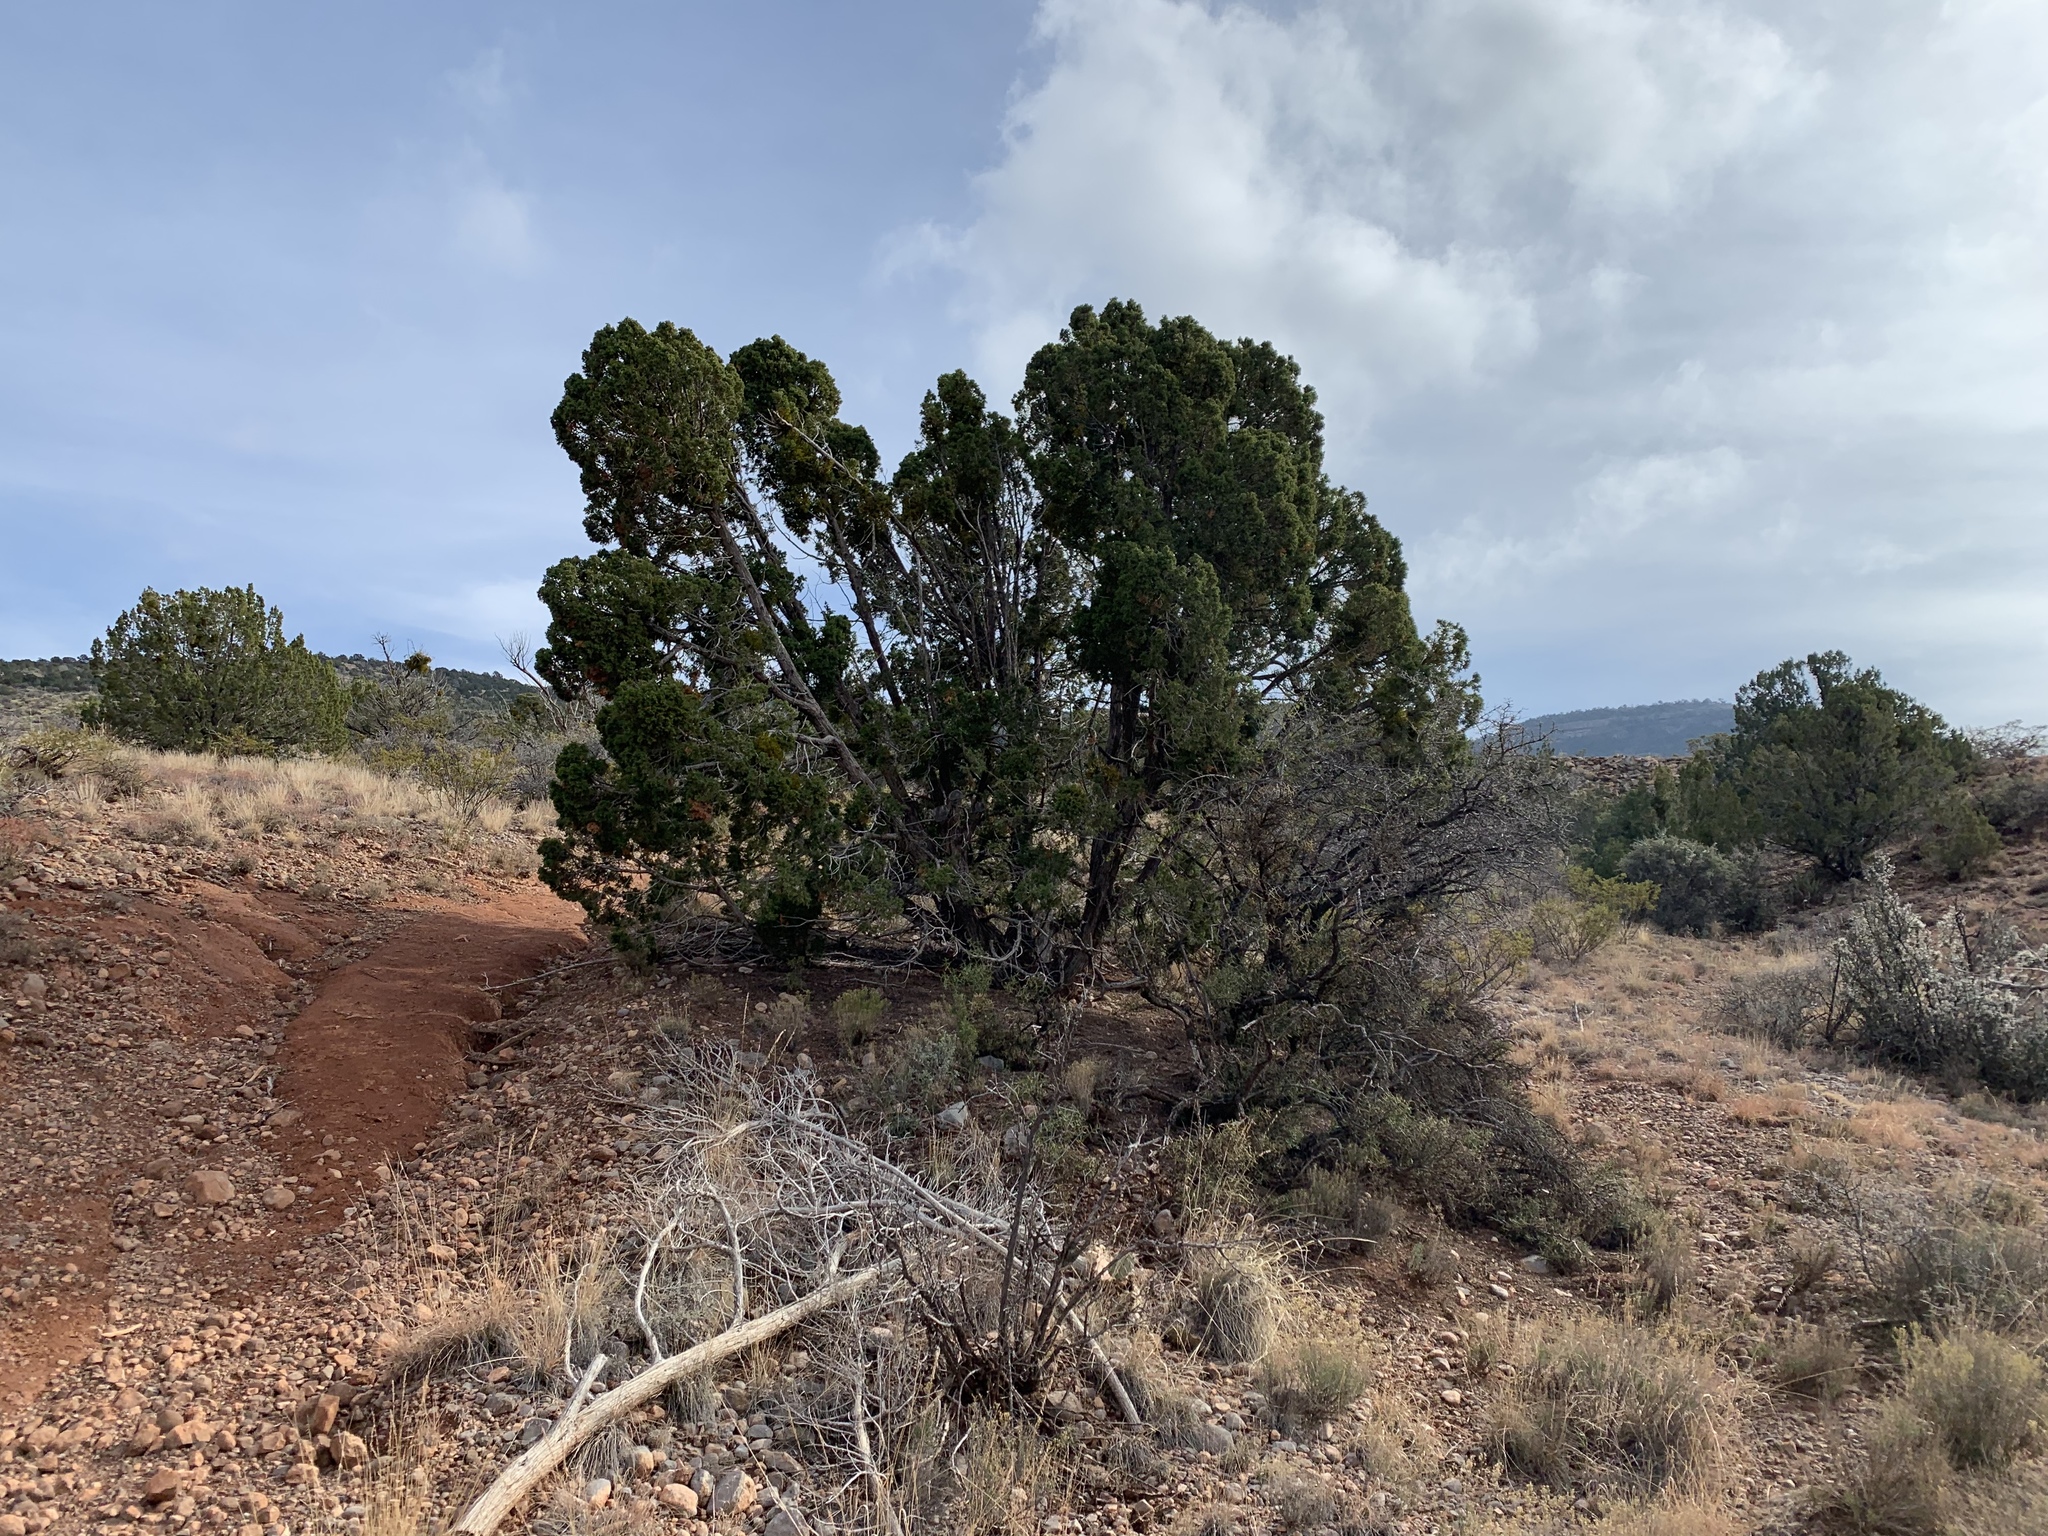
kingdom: Plantae
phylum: Tracheophyta
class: Pinopsida
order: Pinales
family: Cupressaceae
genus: Juniperus
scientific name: Juniperus monosperma
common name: One-seed juniper
